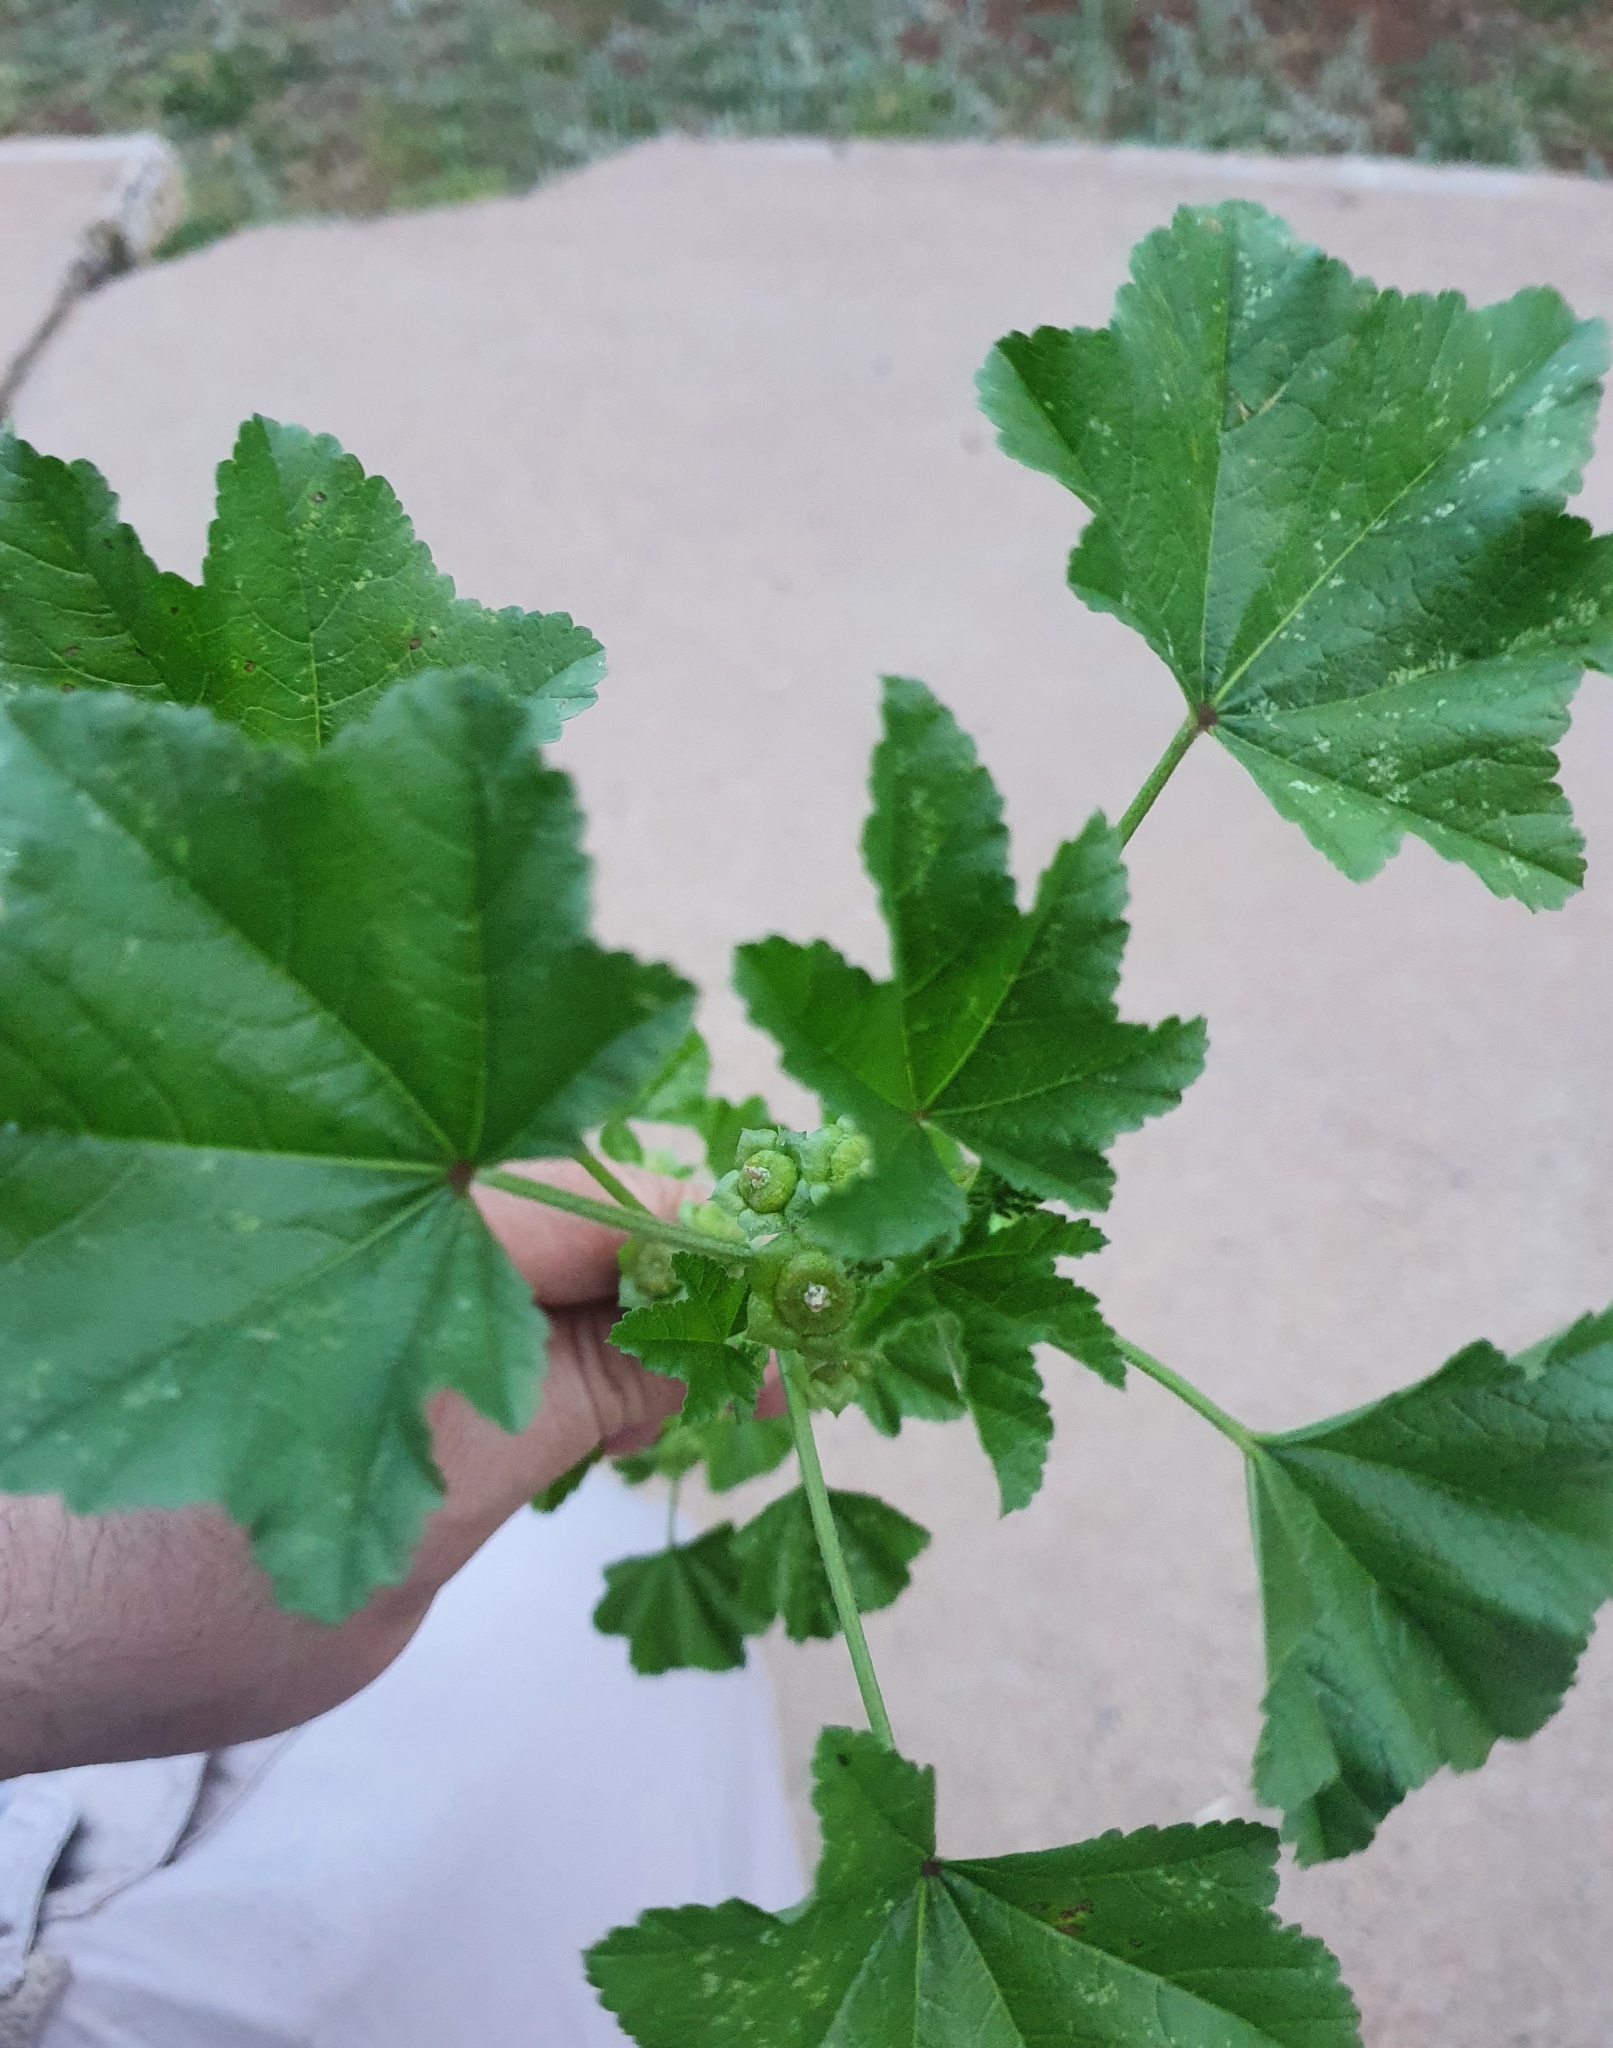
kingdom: Plantae
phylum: Tracheophyta
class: Magnoliopsida
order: Malvales
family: Malvaceae
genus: Malva
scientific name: Malva parviflora
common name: Least mallow
